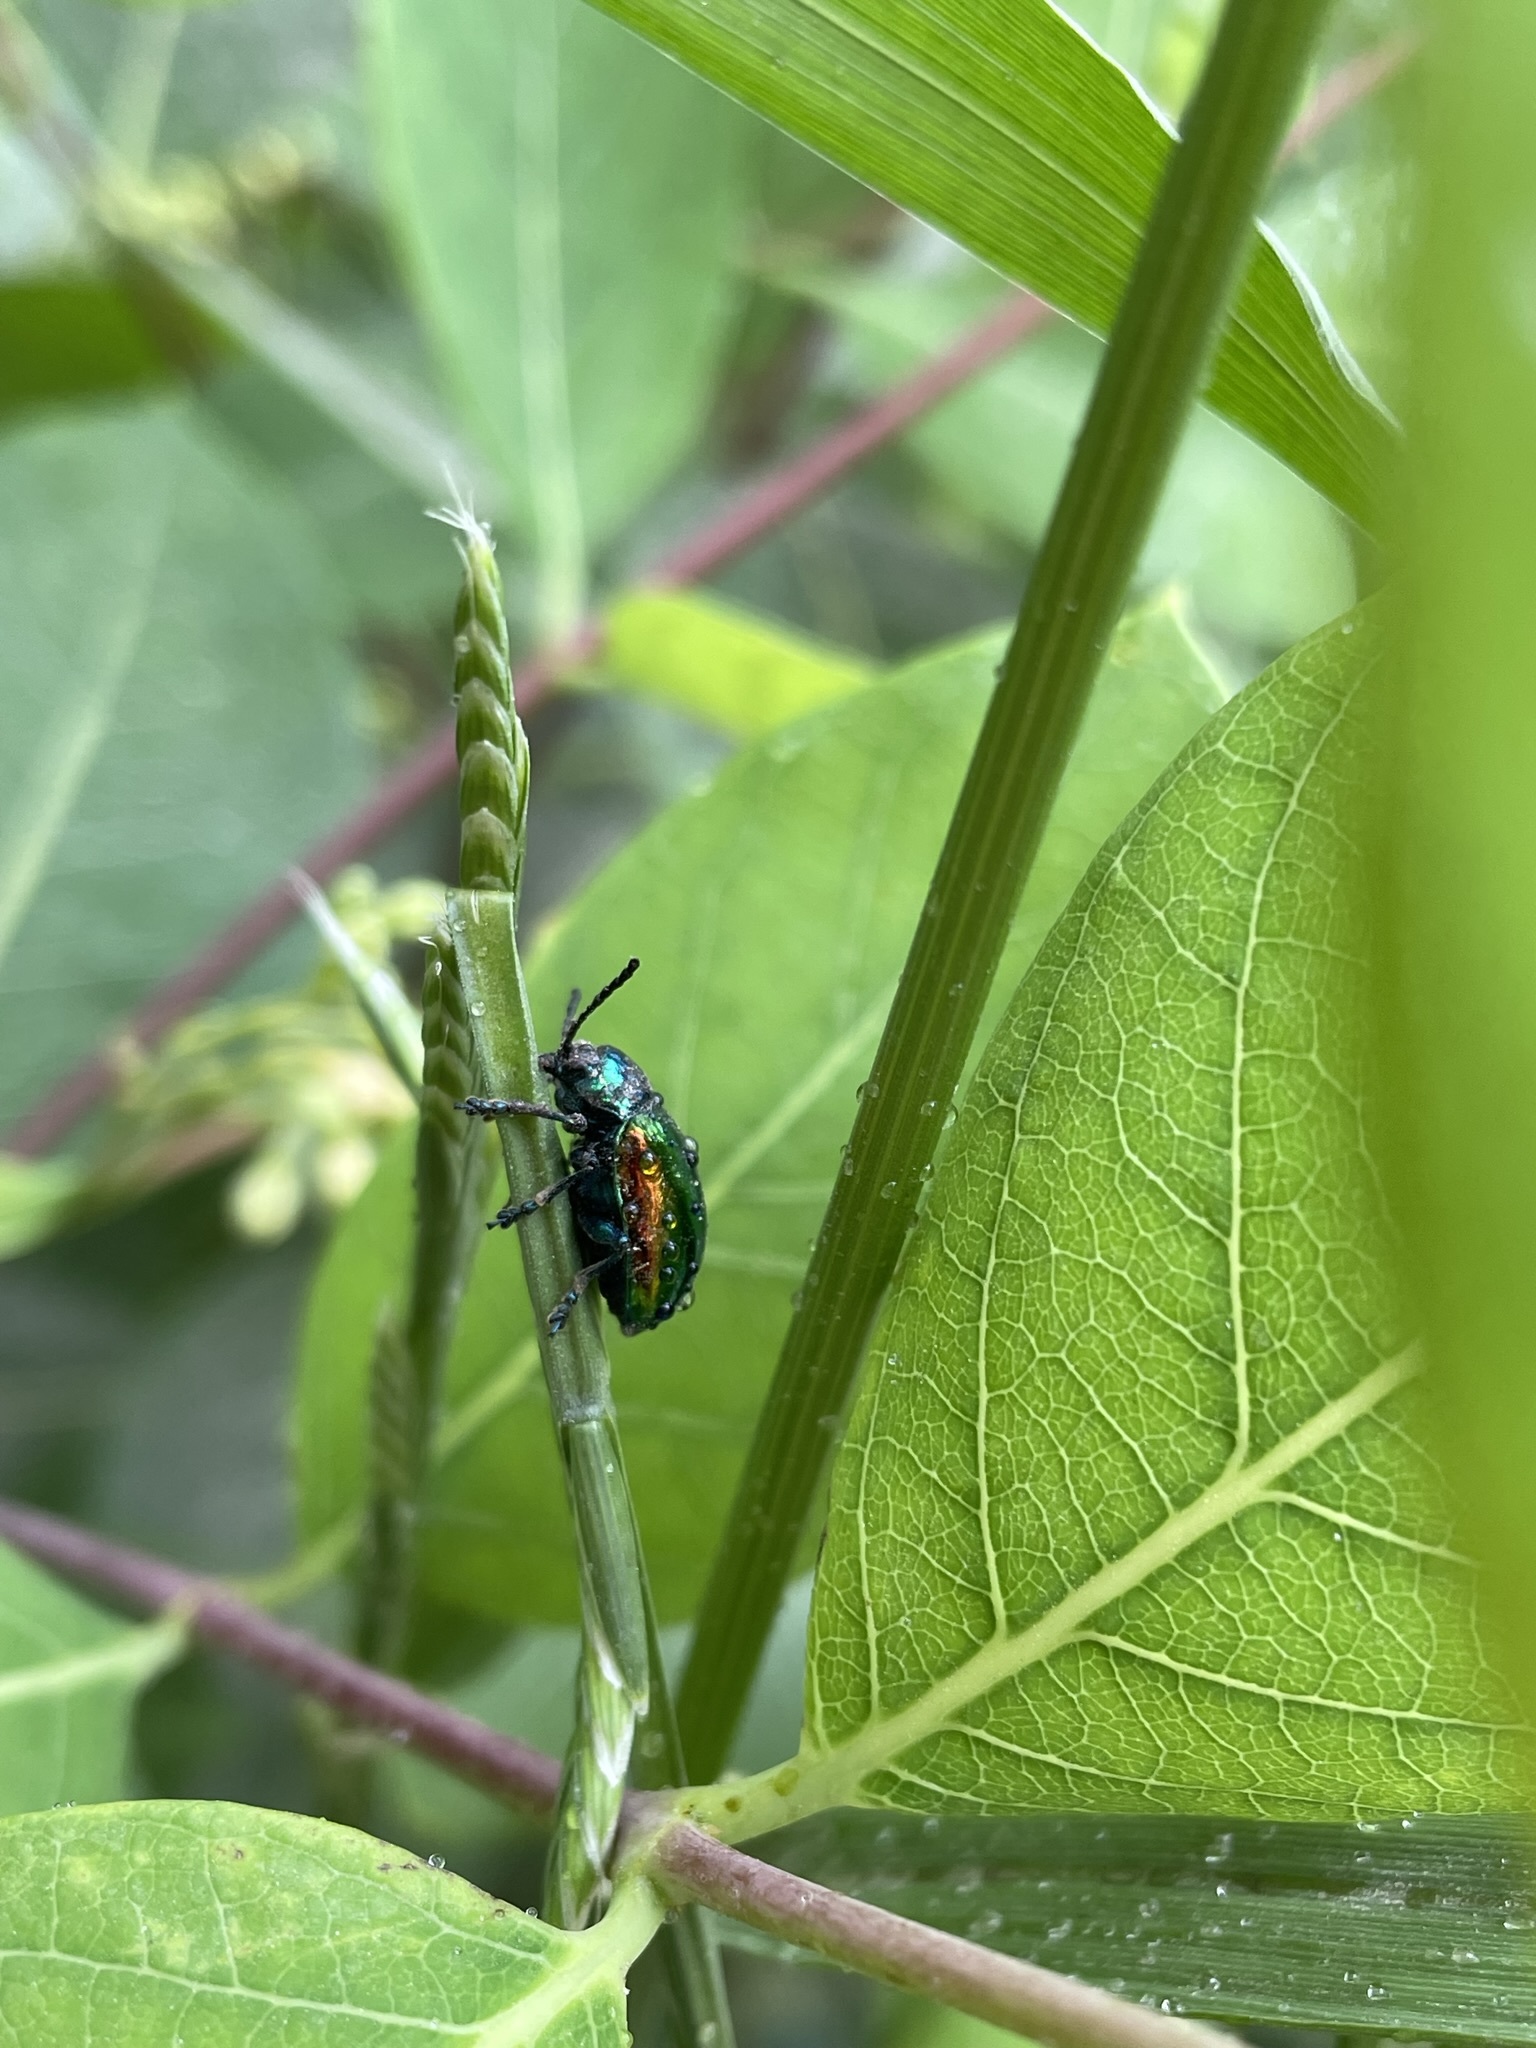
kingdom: Animalia
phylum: Arthropoda
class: Insecta
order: Coleoptera
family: Chrysomelidae
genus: Chrysochus
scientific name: Chrysochus auratus
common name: Dogbane leaf beetle
